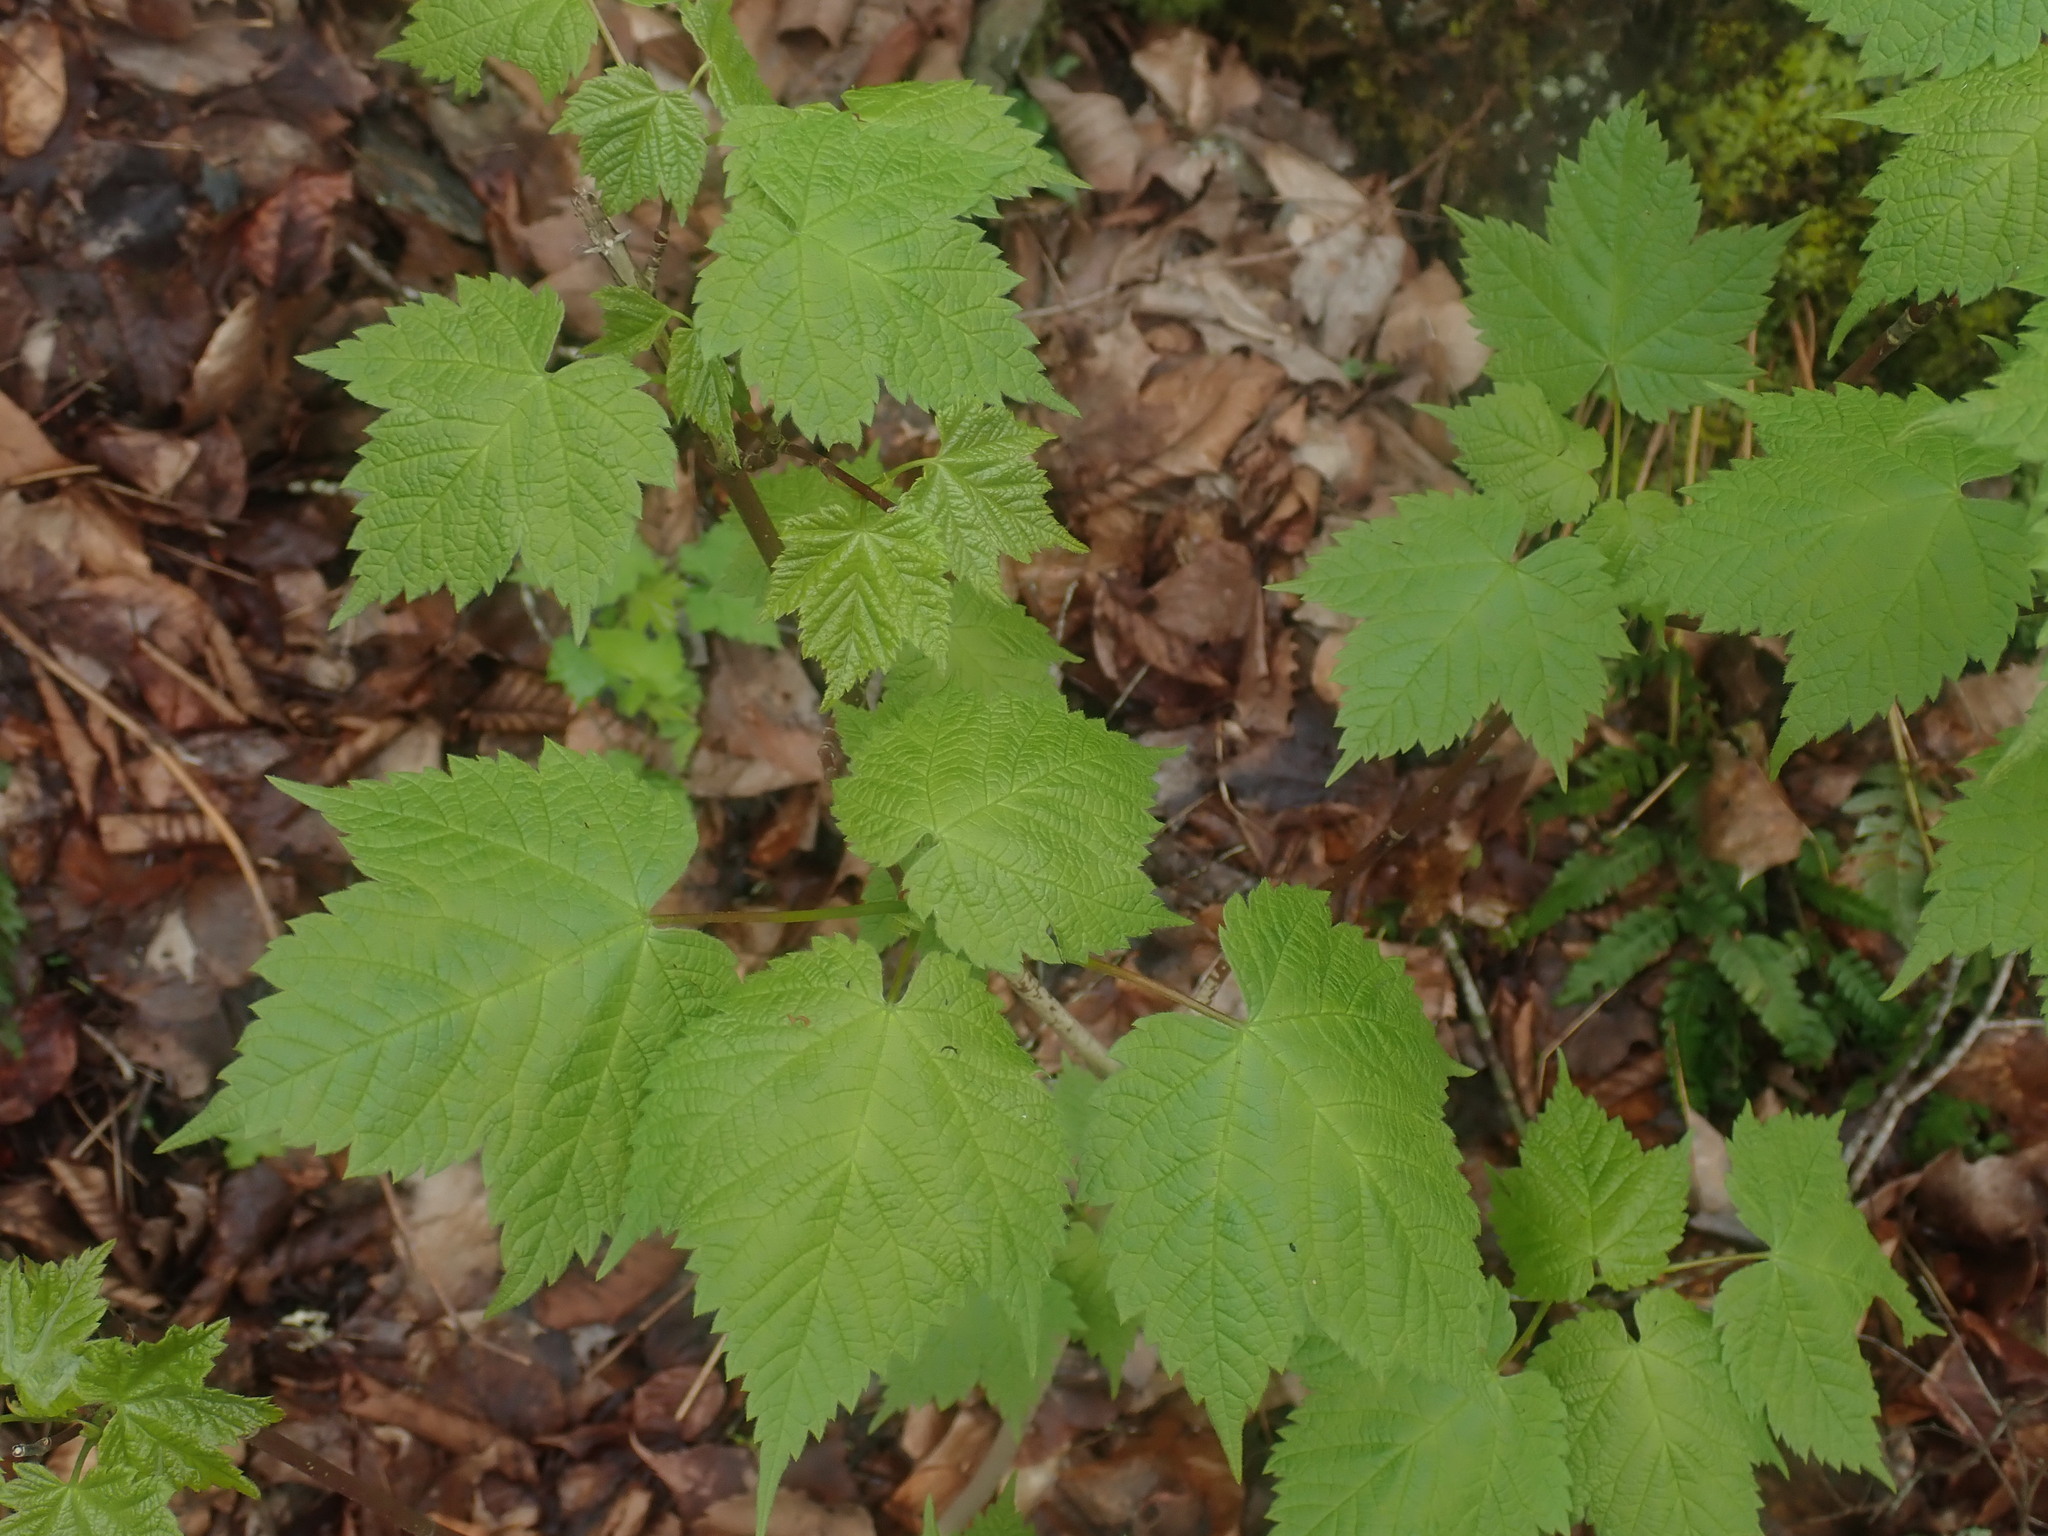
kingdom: Plantae
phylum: Tracheophyta
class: Magnoliopsida
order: Sapindales
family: Sapindaceae
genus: Acer
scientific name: Acer spicatum
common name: Mountain maple
